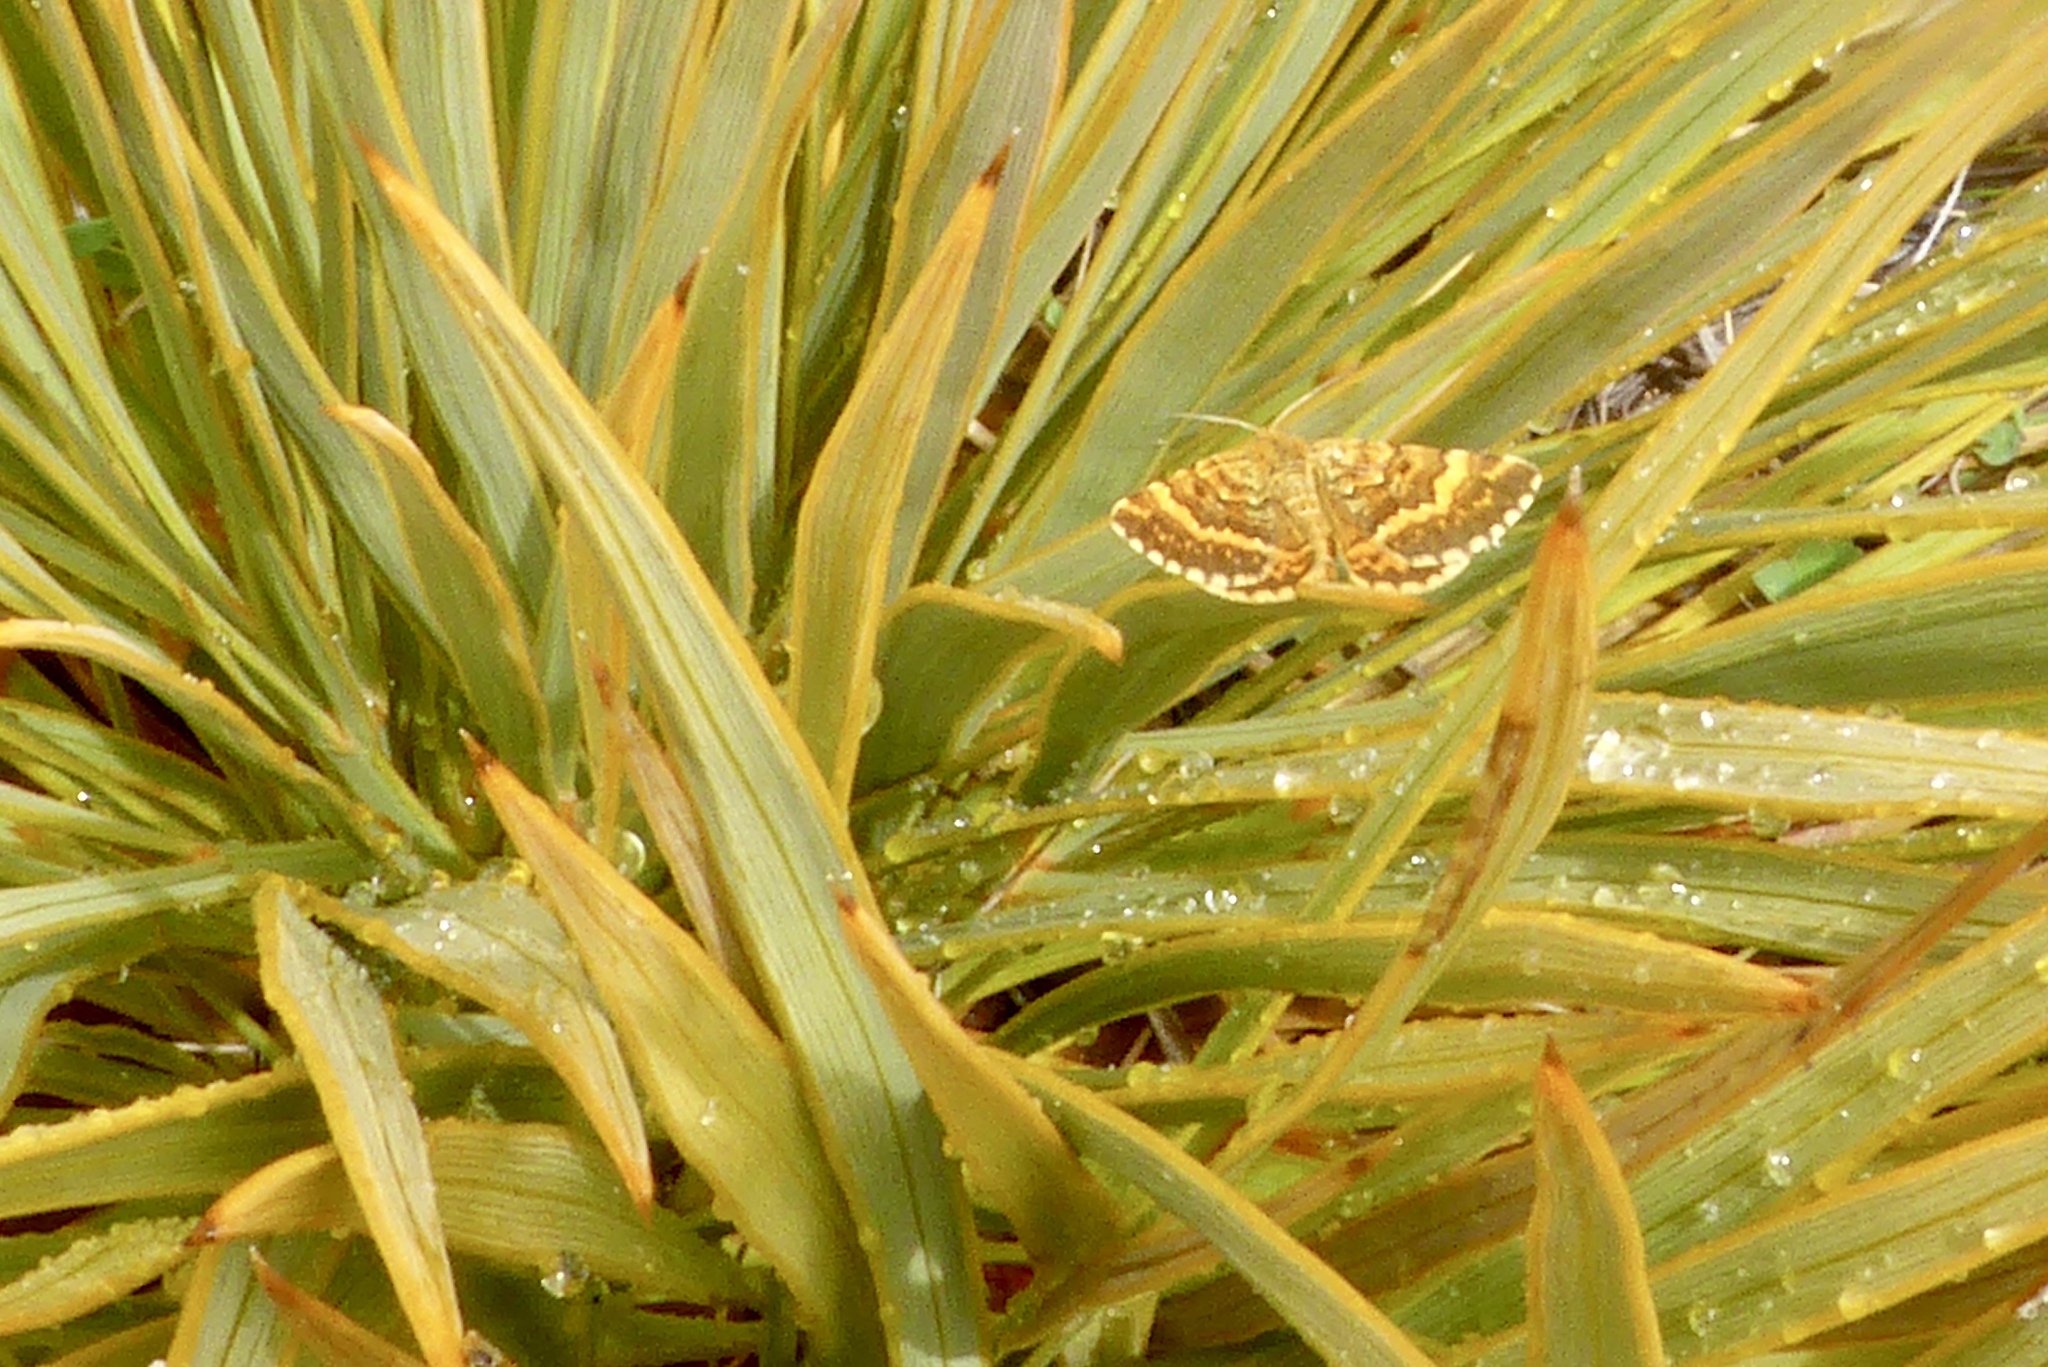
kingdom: Animalia
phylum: Arthropoda
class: Insecta
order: Lepidoptera
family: Geometridae
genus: Dasyuris
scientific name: Dasyuris partheniata
